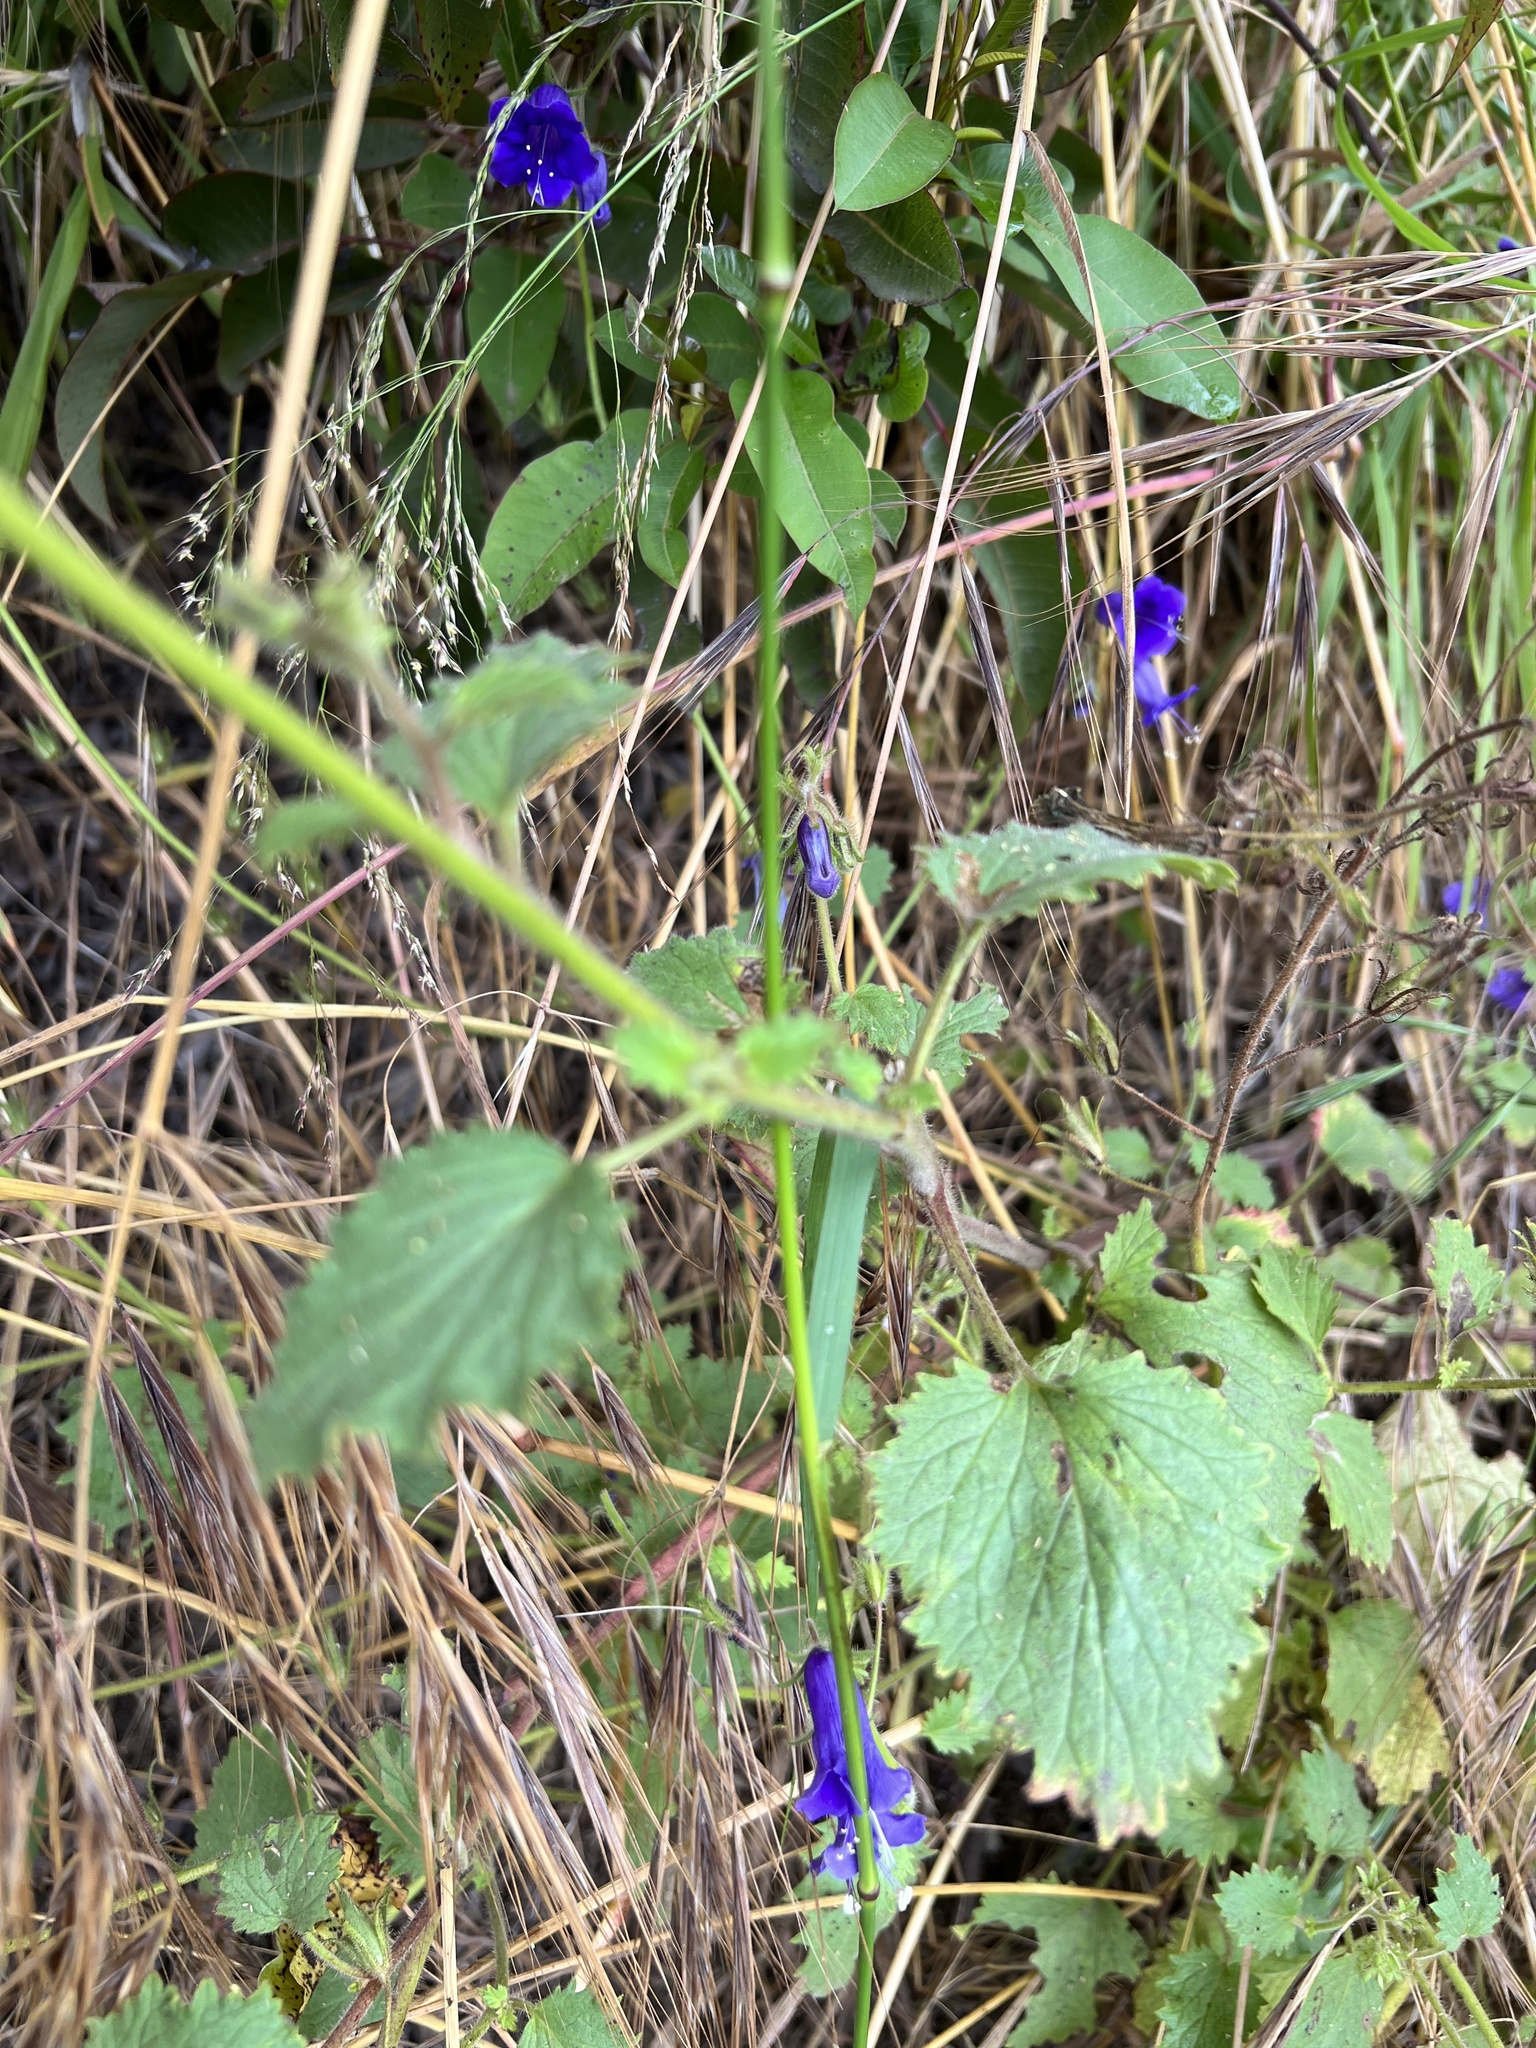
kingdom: Plantae
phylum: Tracheophyta
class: Magnoliopsida
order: Boraginales
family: Hydrophyllaceae
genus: Phacelia
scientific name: Phacelia minor
